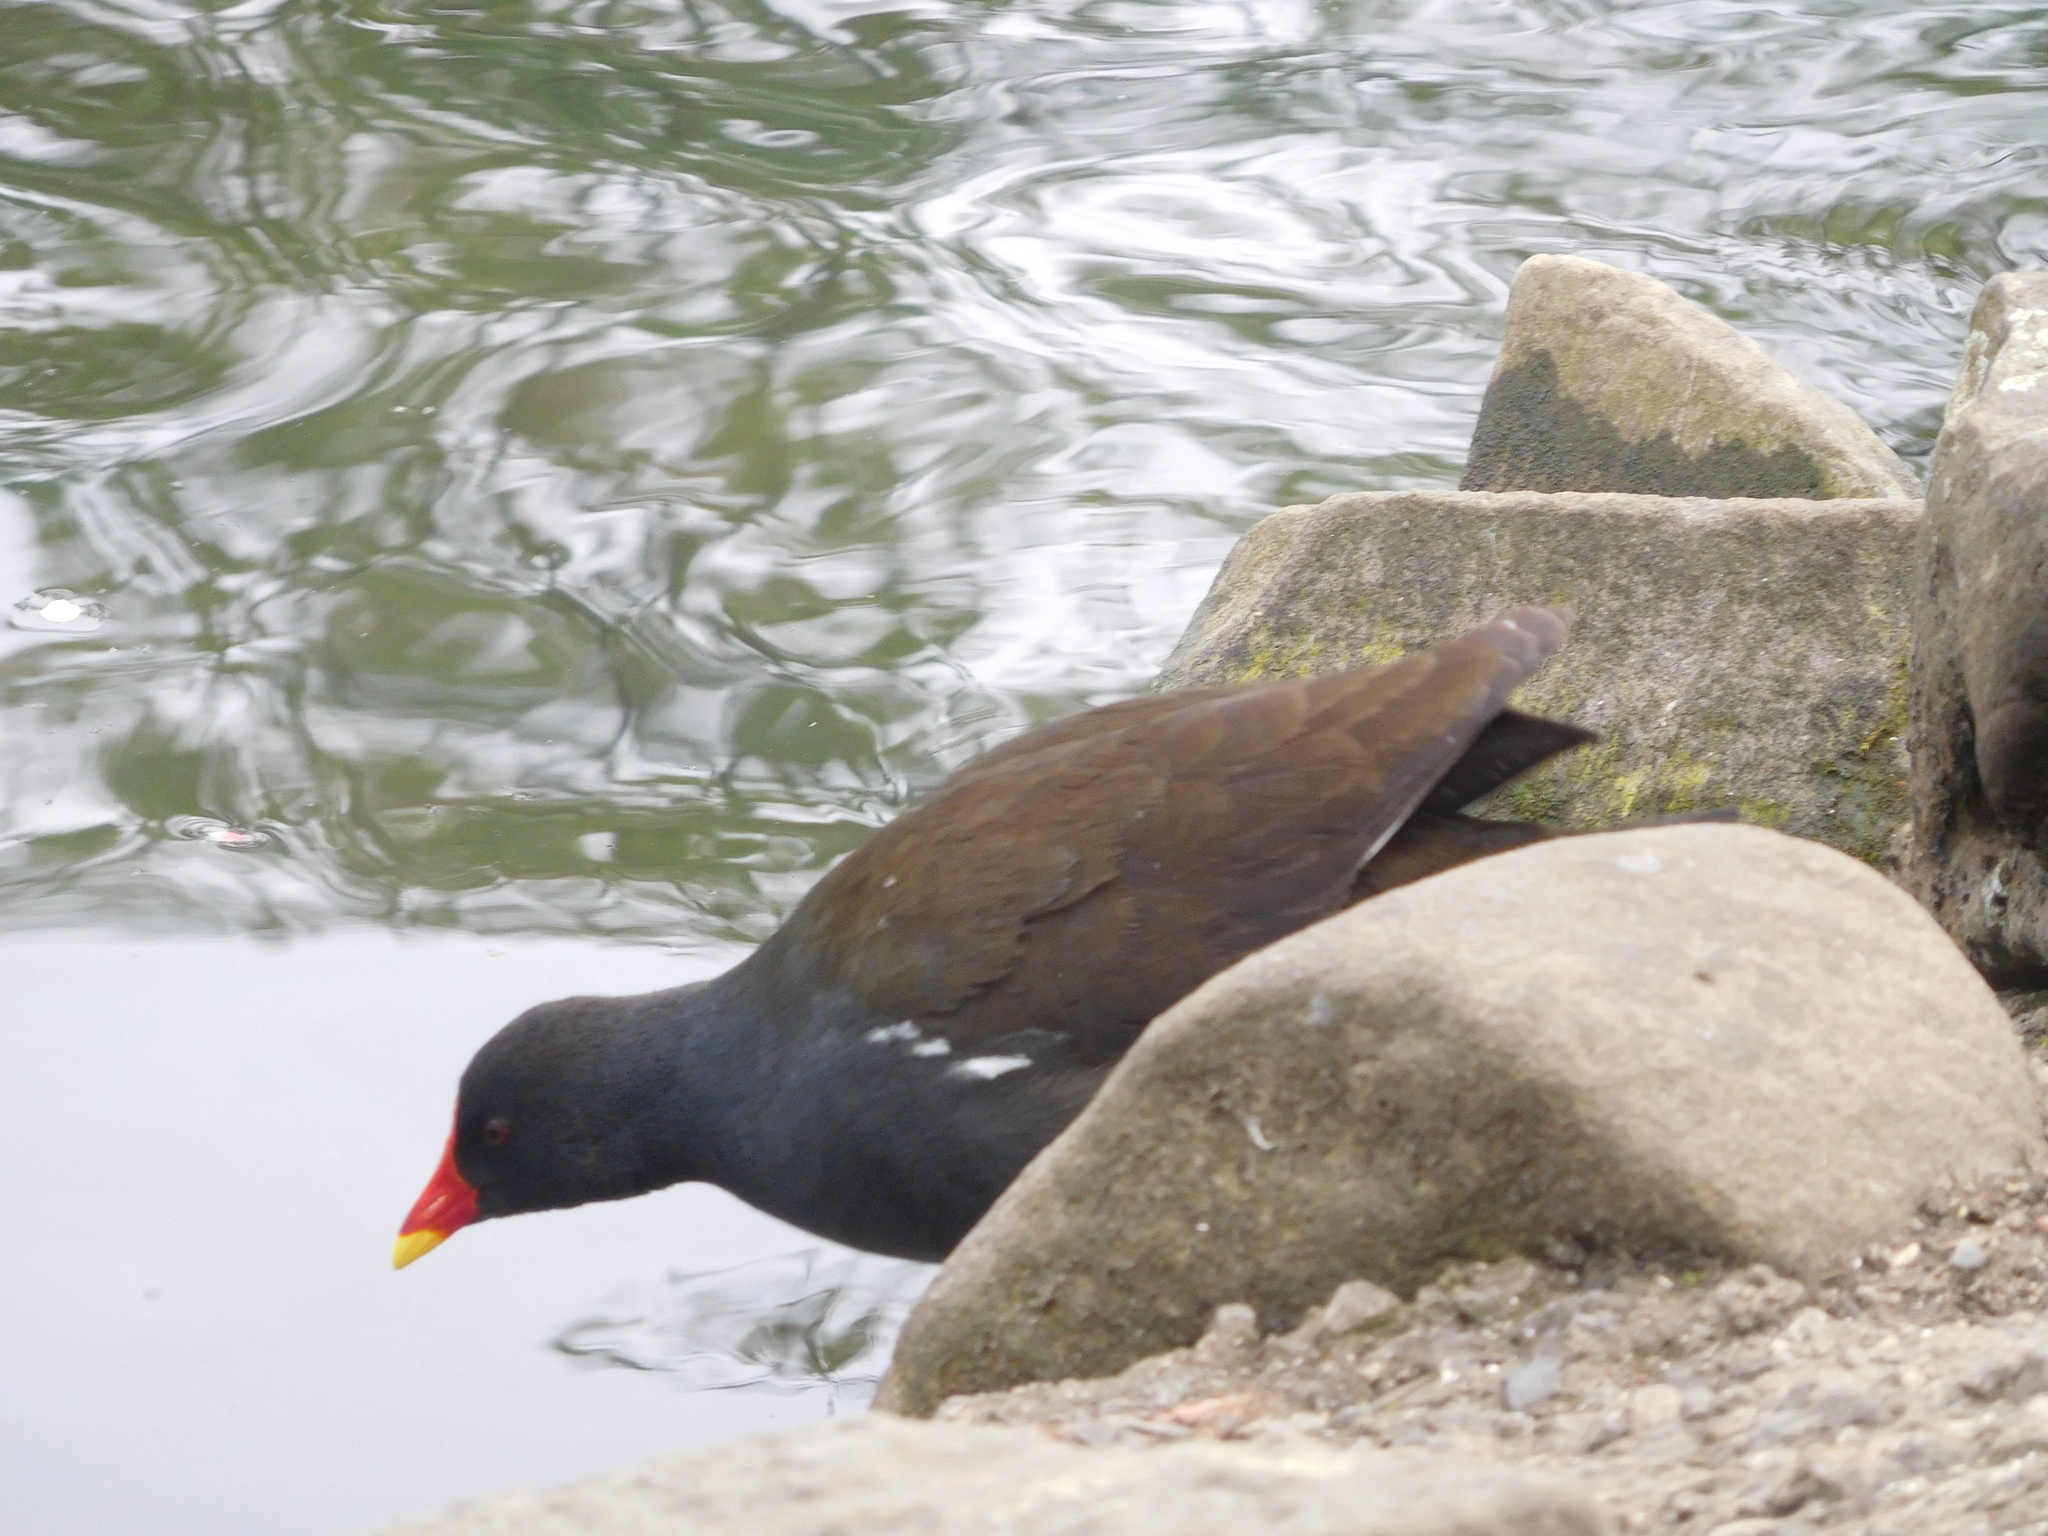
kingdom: Animalia
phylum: Chordata
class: Aves
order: Gruiformes
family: Rallidae
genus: Gallinula
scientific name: Gallinula chloropus
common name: Common moorhen
